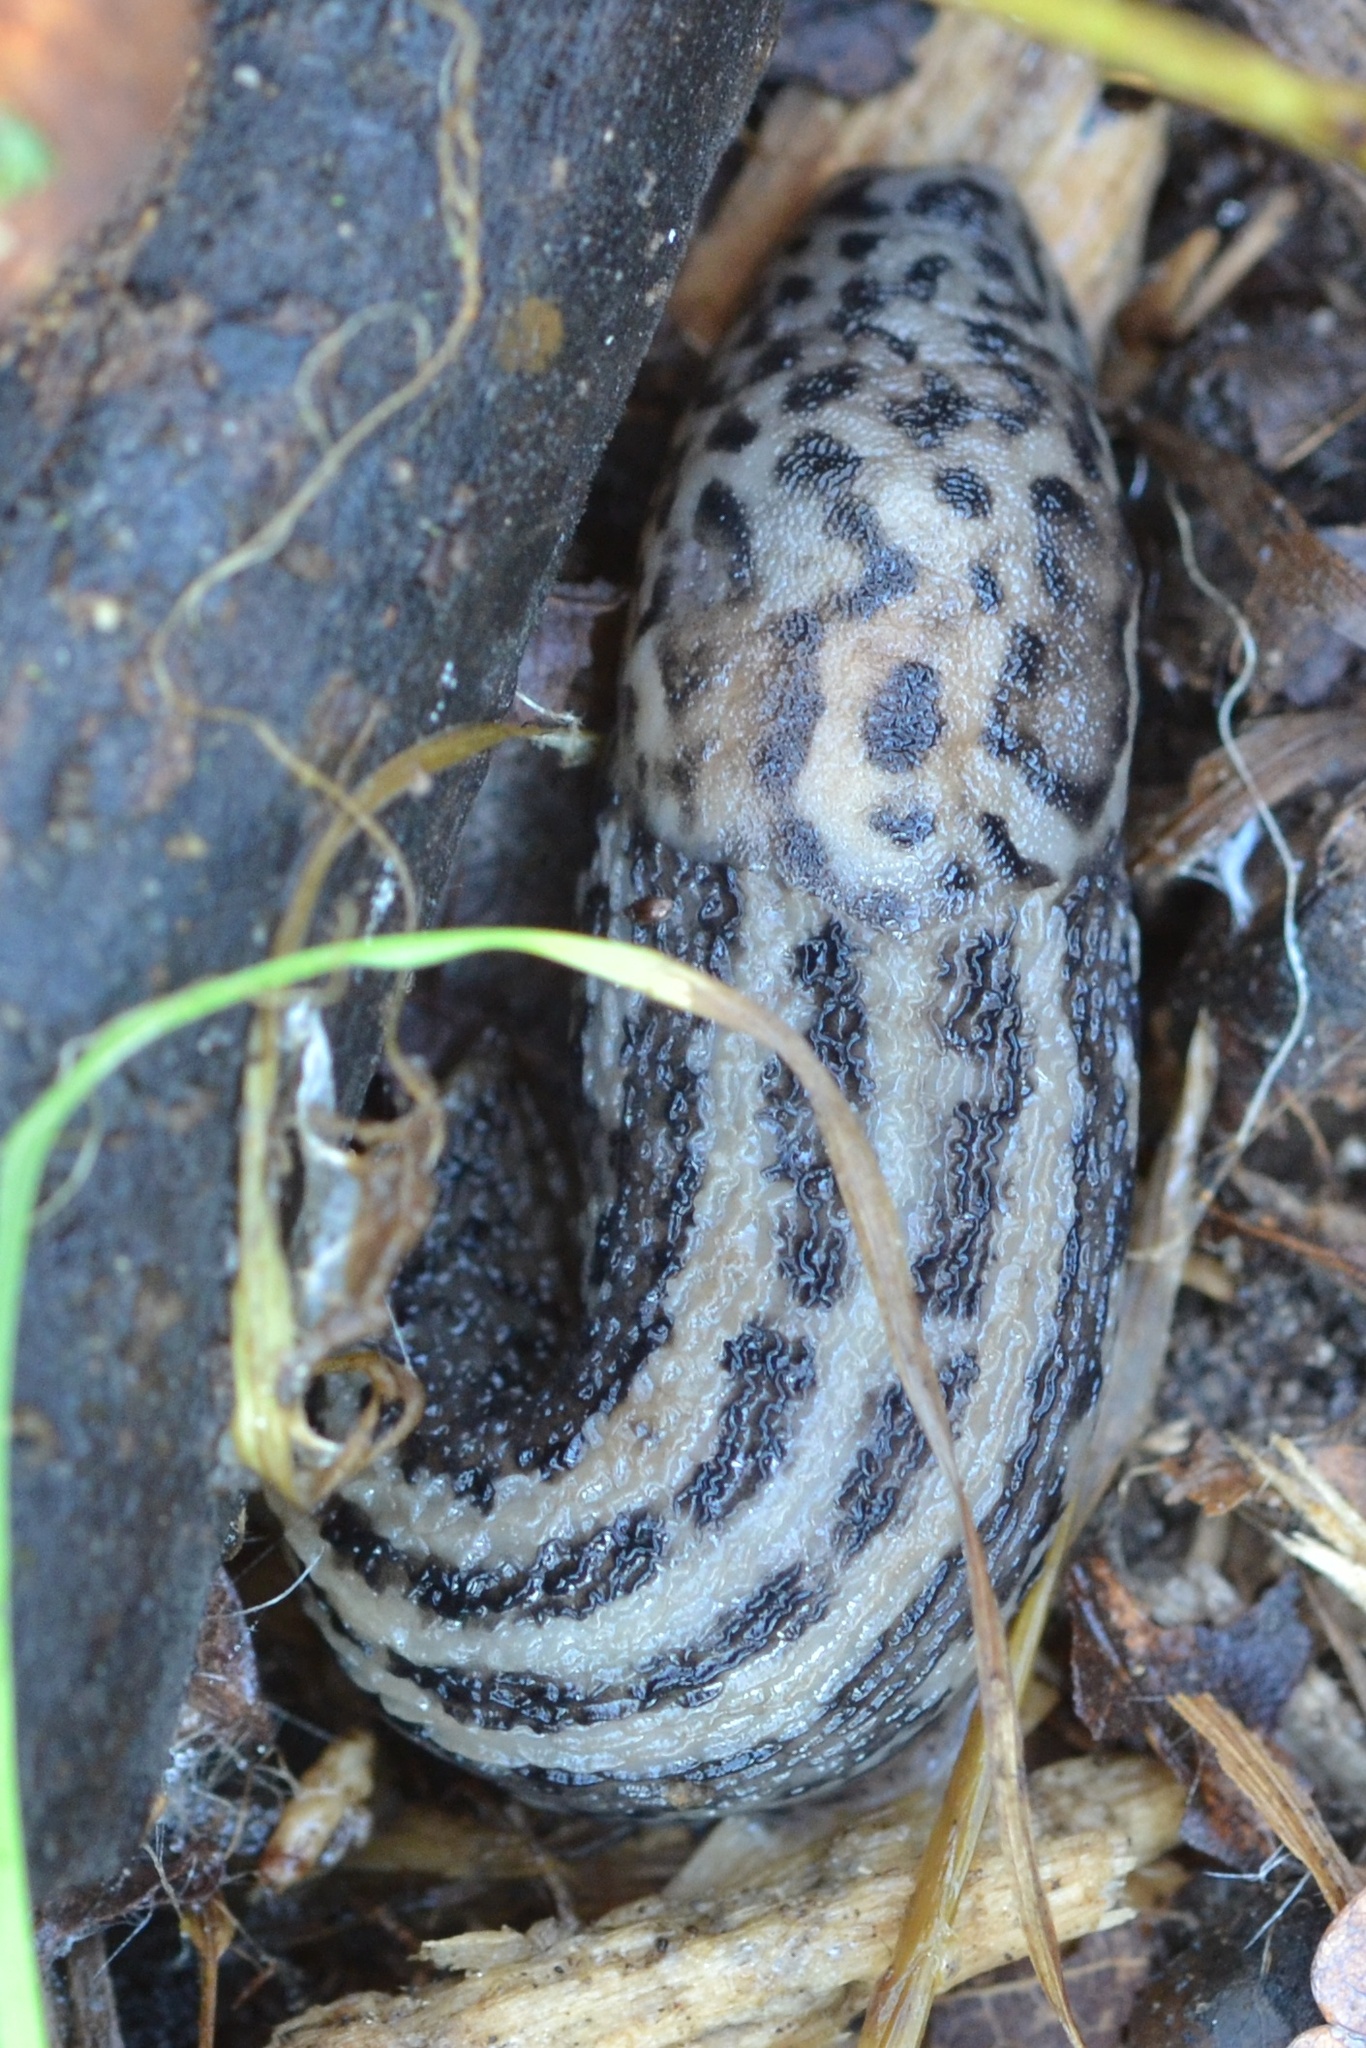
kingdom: Animalia
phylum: Mollusca
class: Gastropoda
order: Stylommatophora
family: Limacidae
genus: Limax
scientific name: Limax maximus
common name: Great grey slug
